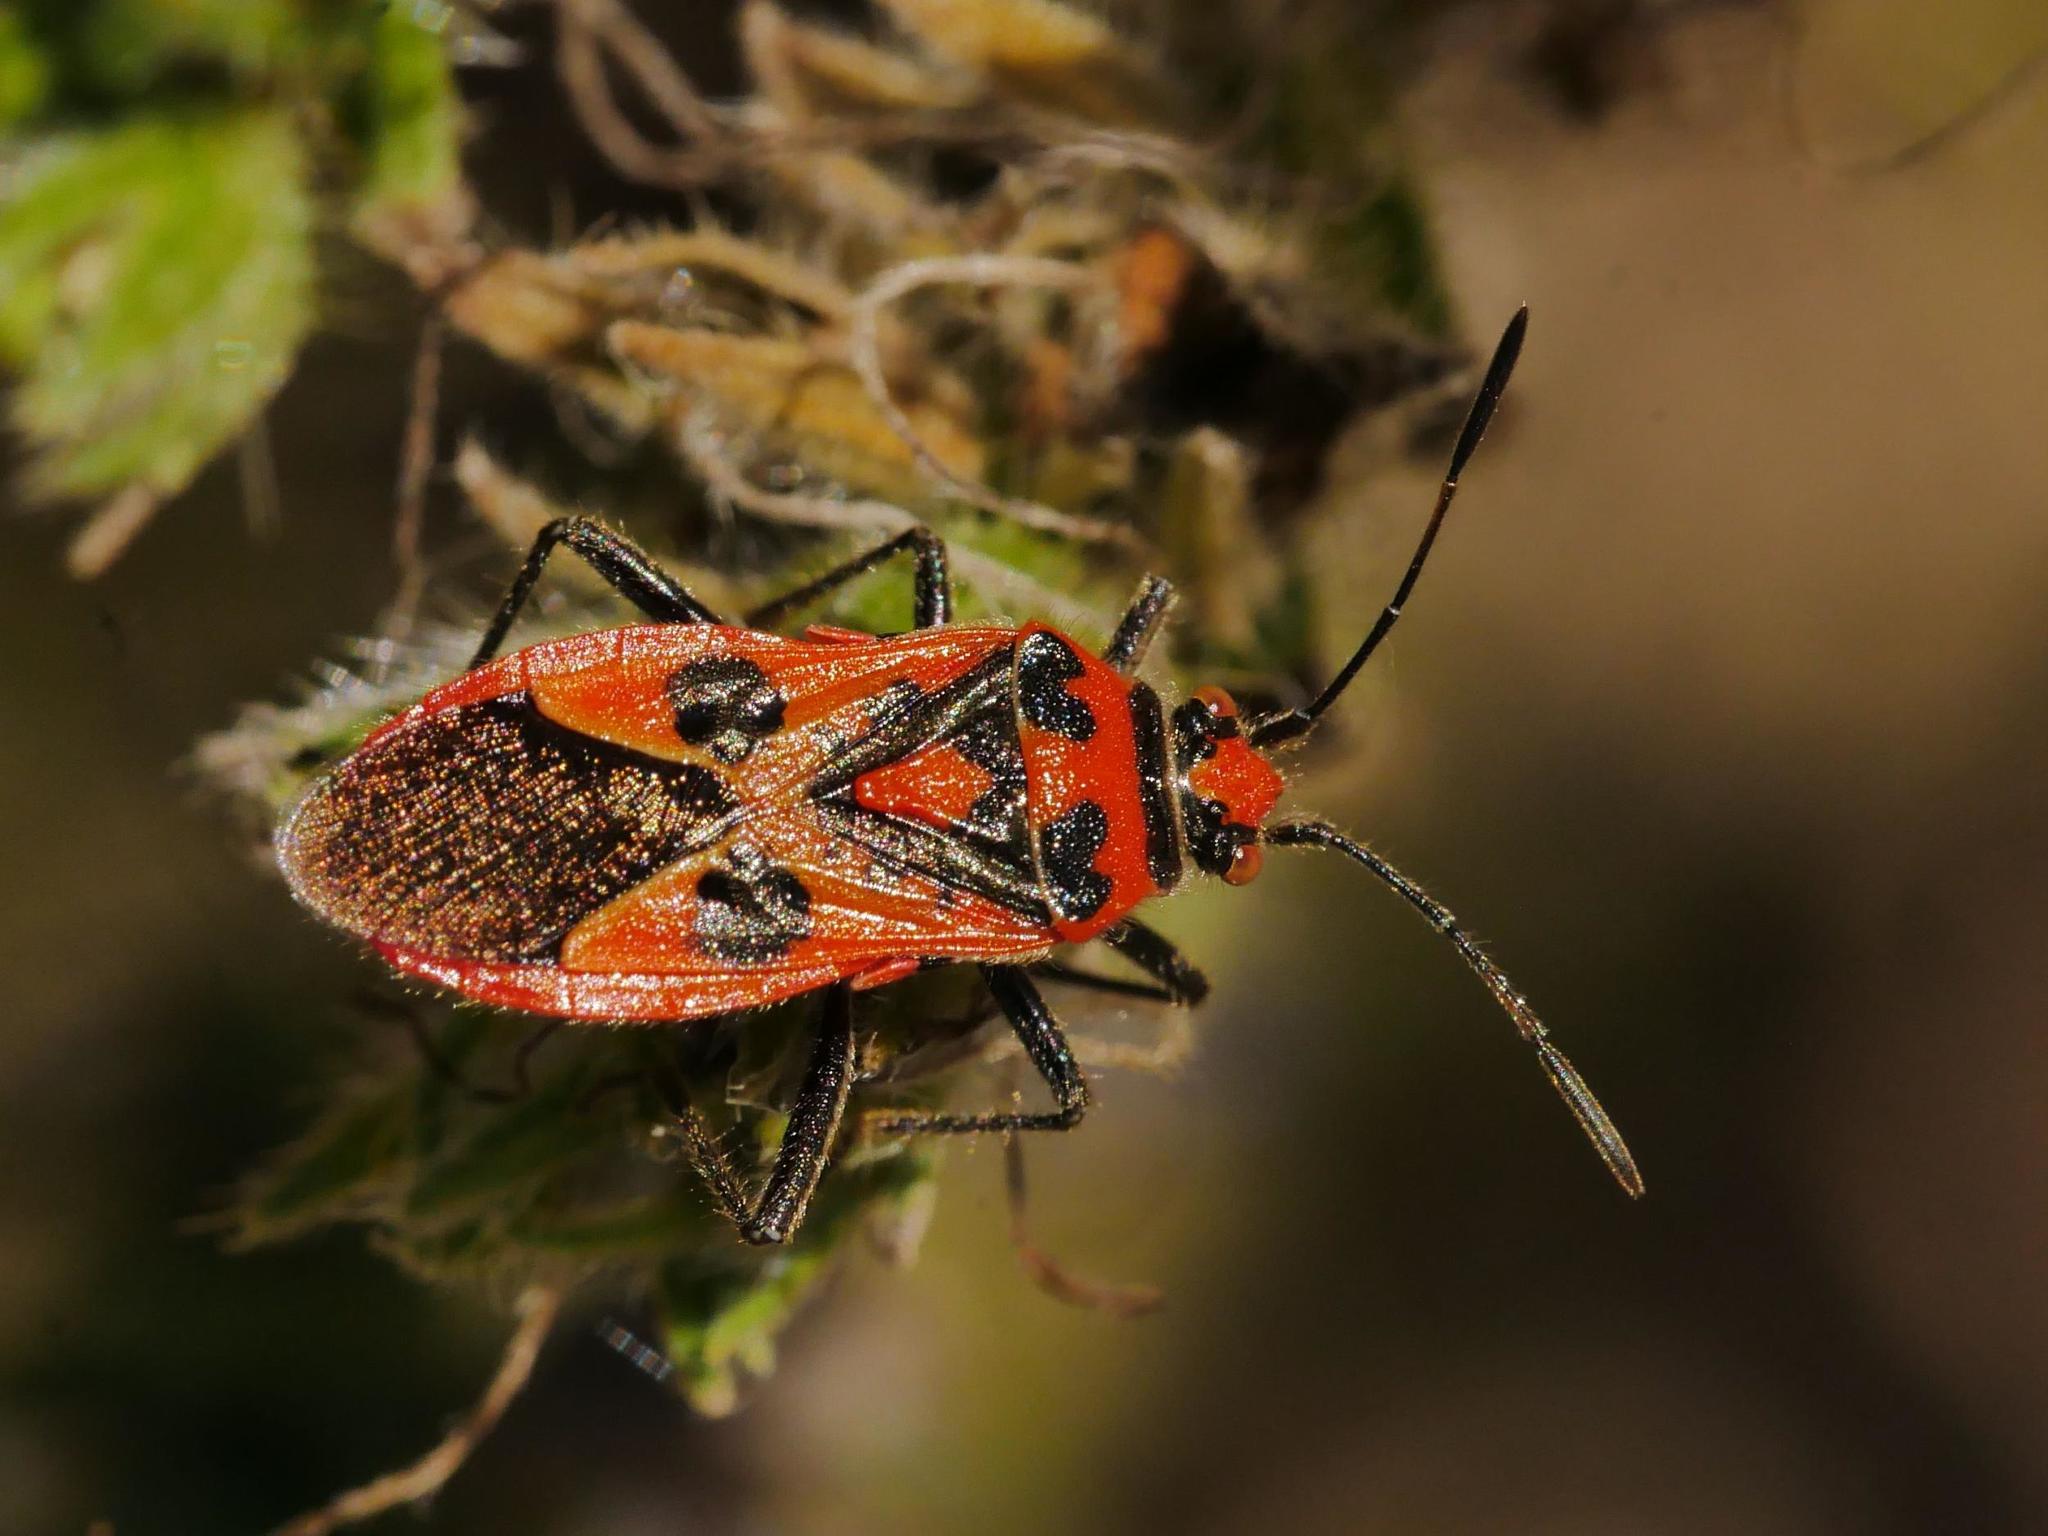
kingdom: Animalia
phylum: Arthropoda
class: Insecta
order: Hemiptera
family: Rhopalidae
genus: Corizus
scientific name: Corizus hyoscyami
